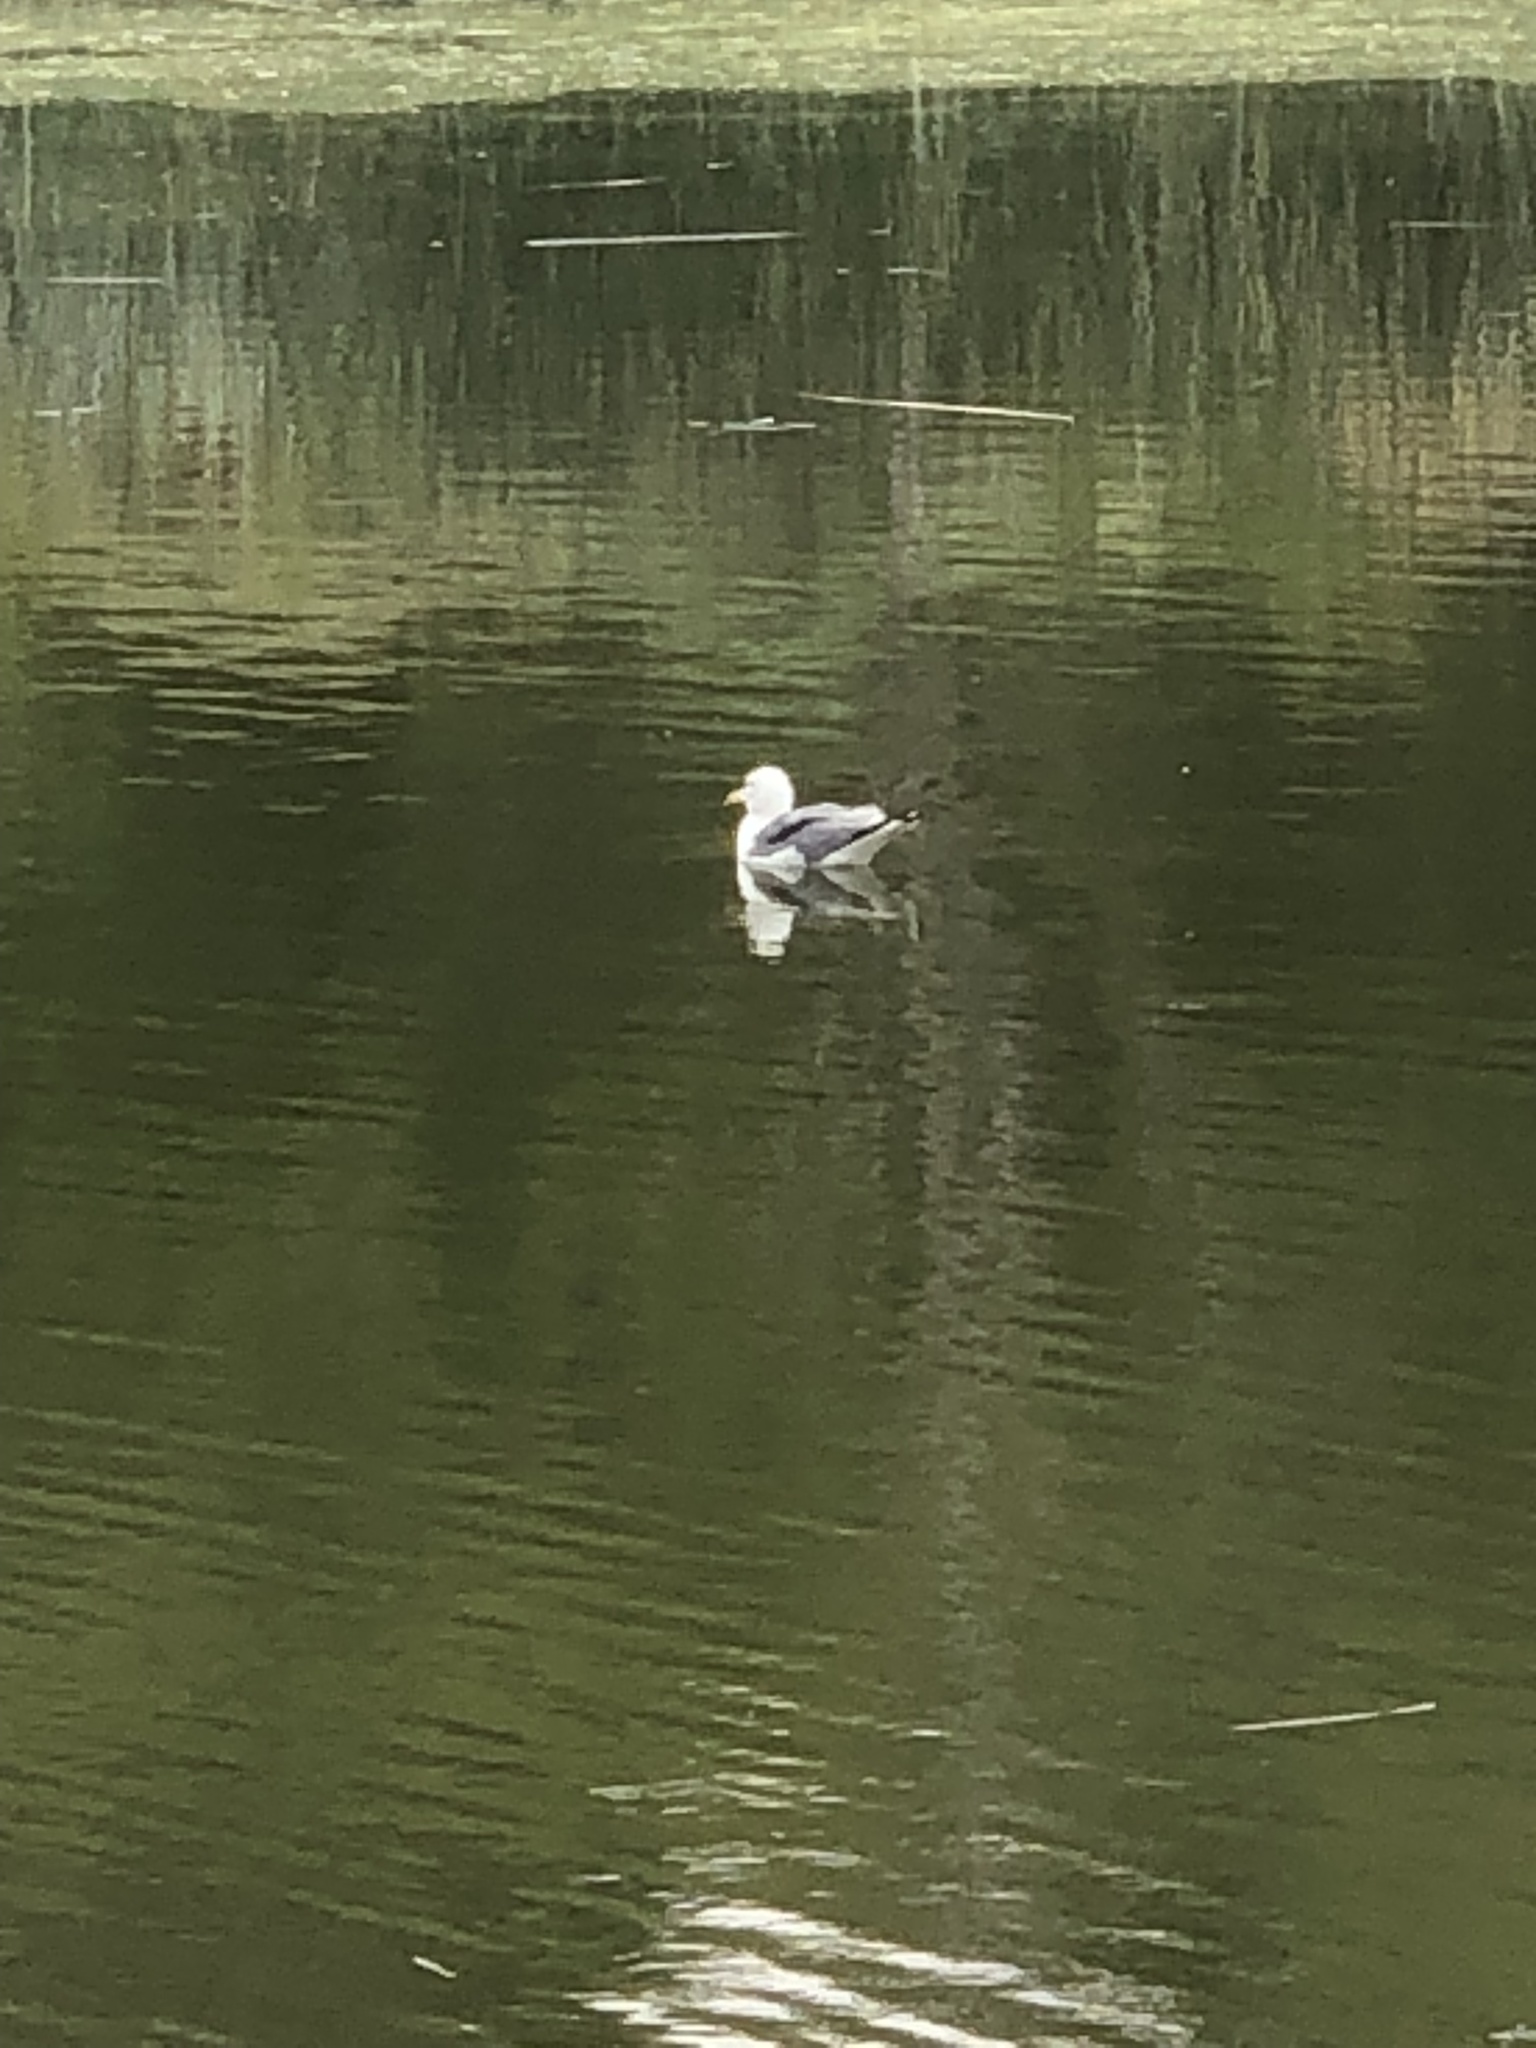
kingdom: Animalia
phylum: Chordata
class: Aves
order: Charadriiformes
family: Laridae
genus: Larus
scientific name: Larus californicus
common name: California gull
